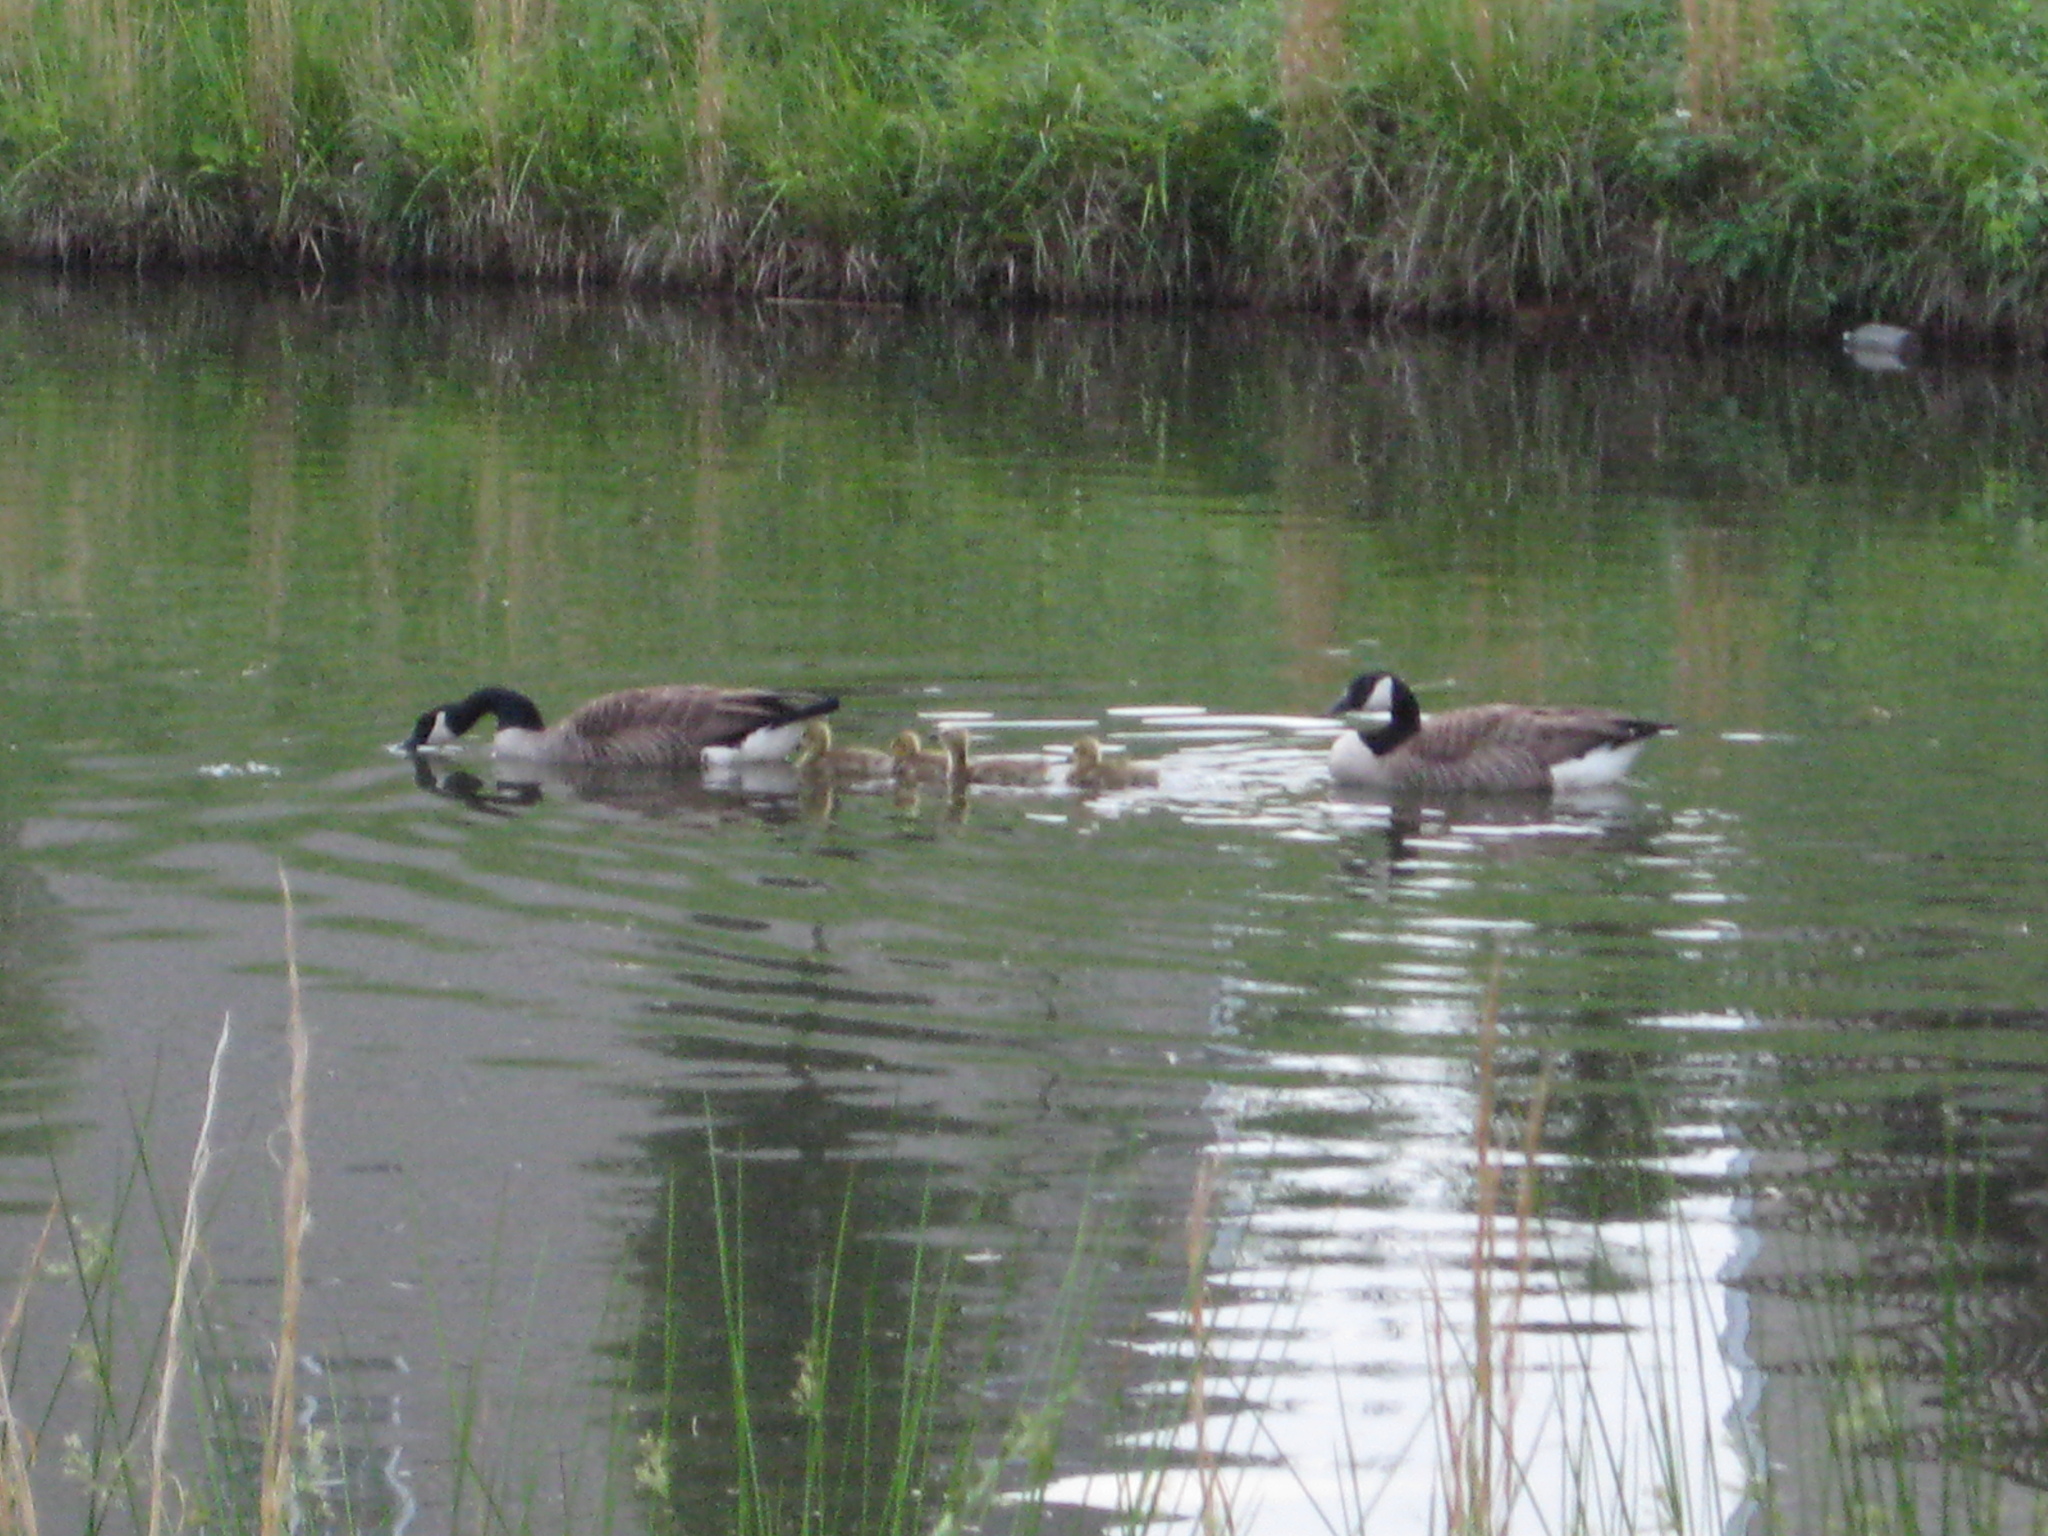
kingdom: Animalia
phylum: Chordata
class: Aves
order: Anseriformes
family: Anatidae
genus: Branta
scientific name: Branta canadensis
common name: Canada goose
